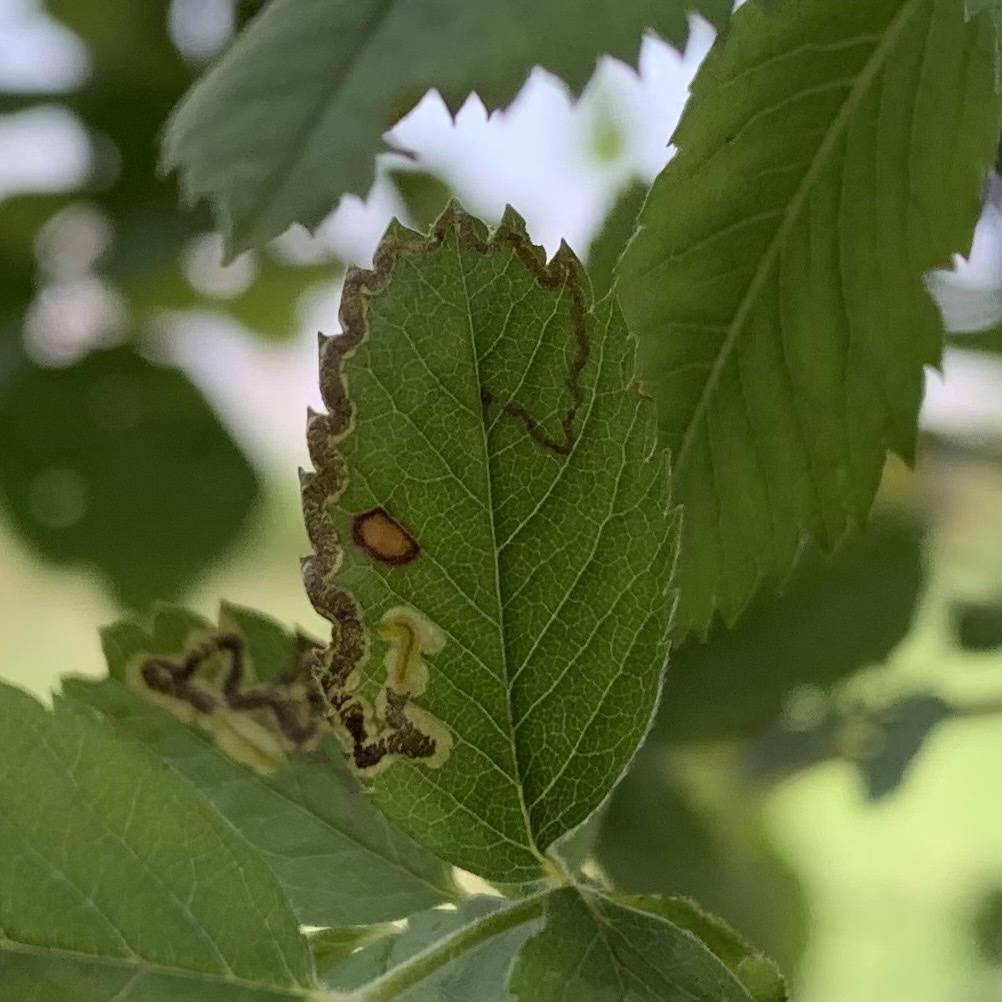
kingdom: Animalia
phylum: Arthropoda
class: Insecta
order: Lepidoptera
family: Nepticulidae
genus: Stigmella
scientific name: Stigmella rosaefoliella
